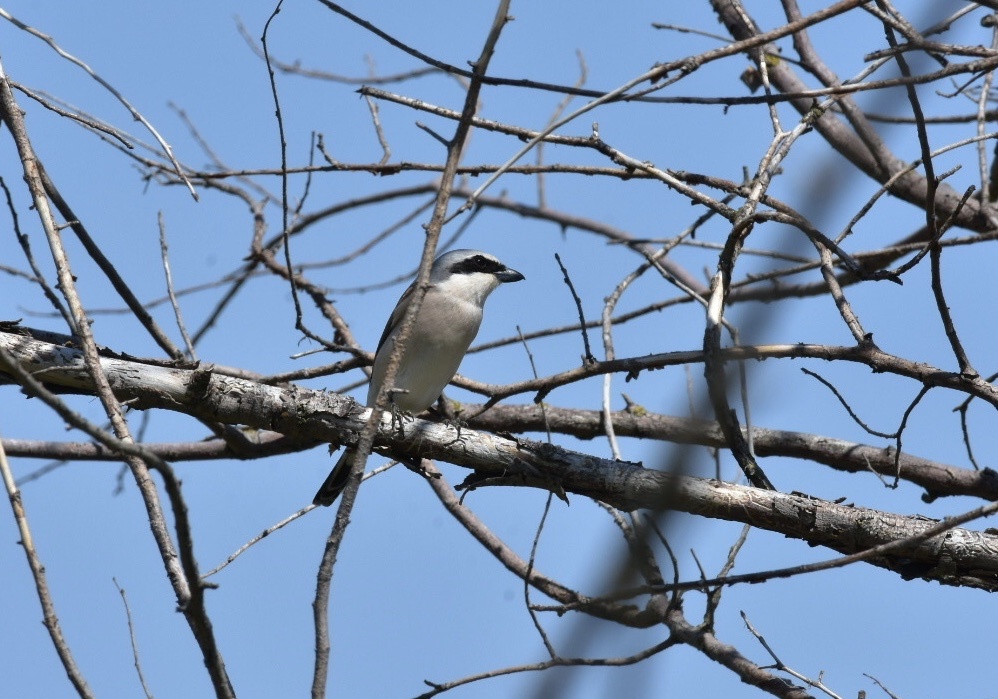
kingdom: Animalia
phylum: Chordata
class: Aves
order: Passeriformes
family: Laniidae
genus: Lanius
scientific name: Lanius collurio
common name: Red-backed shrike
